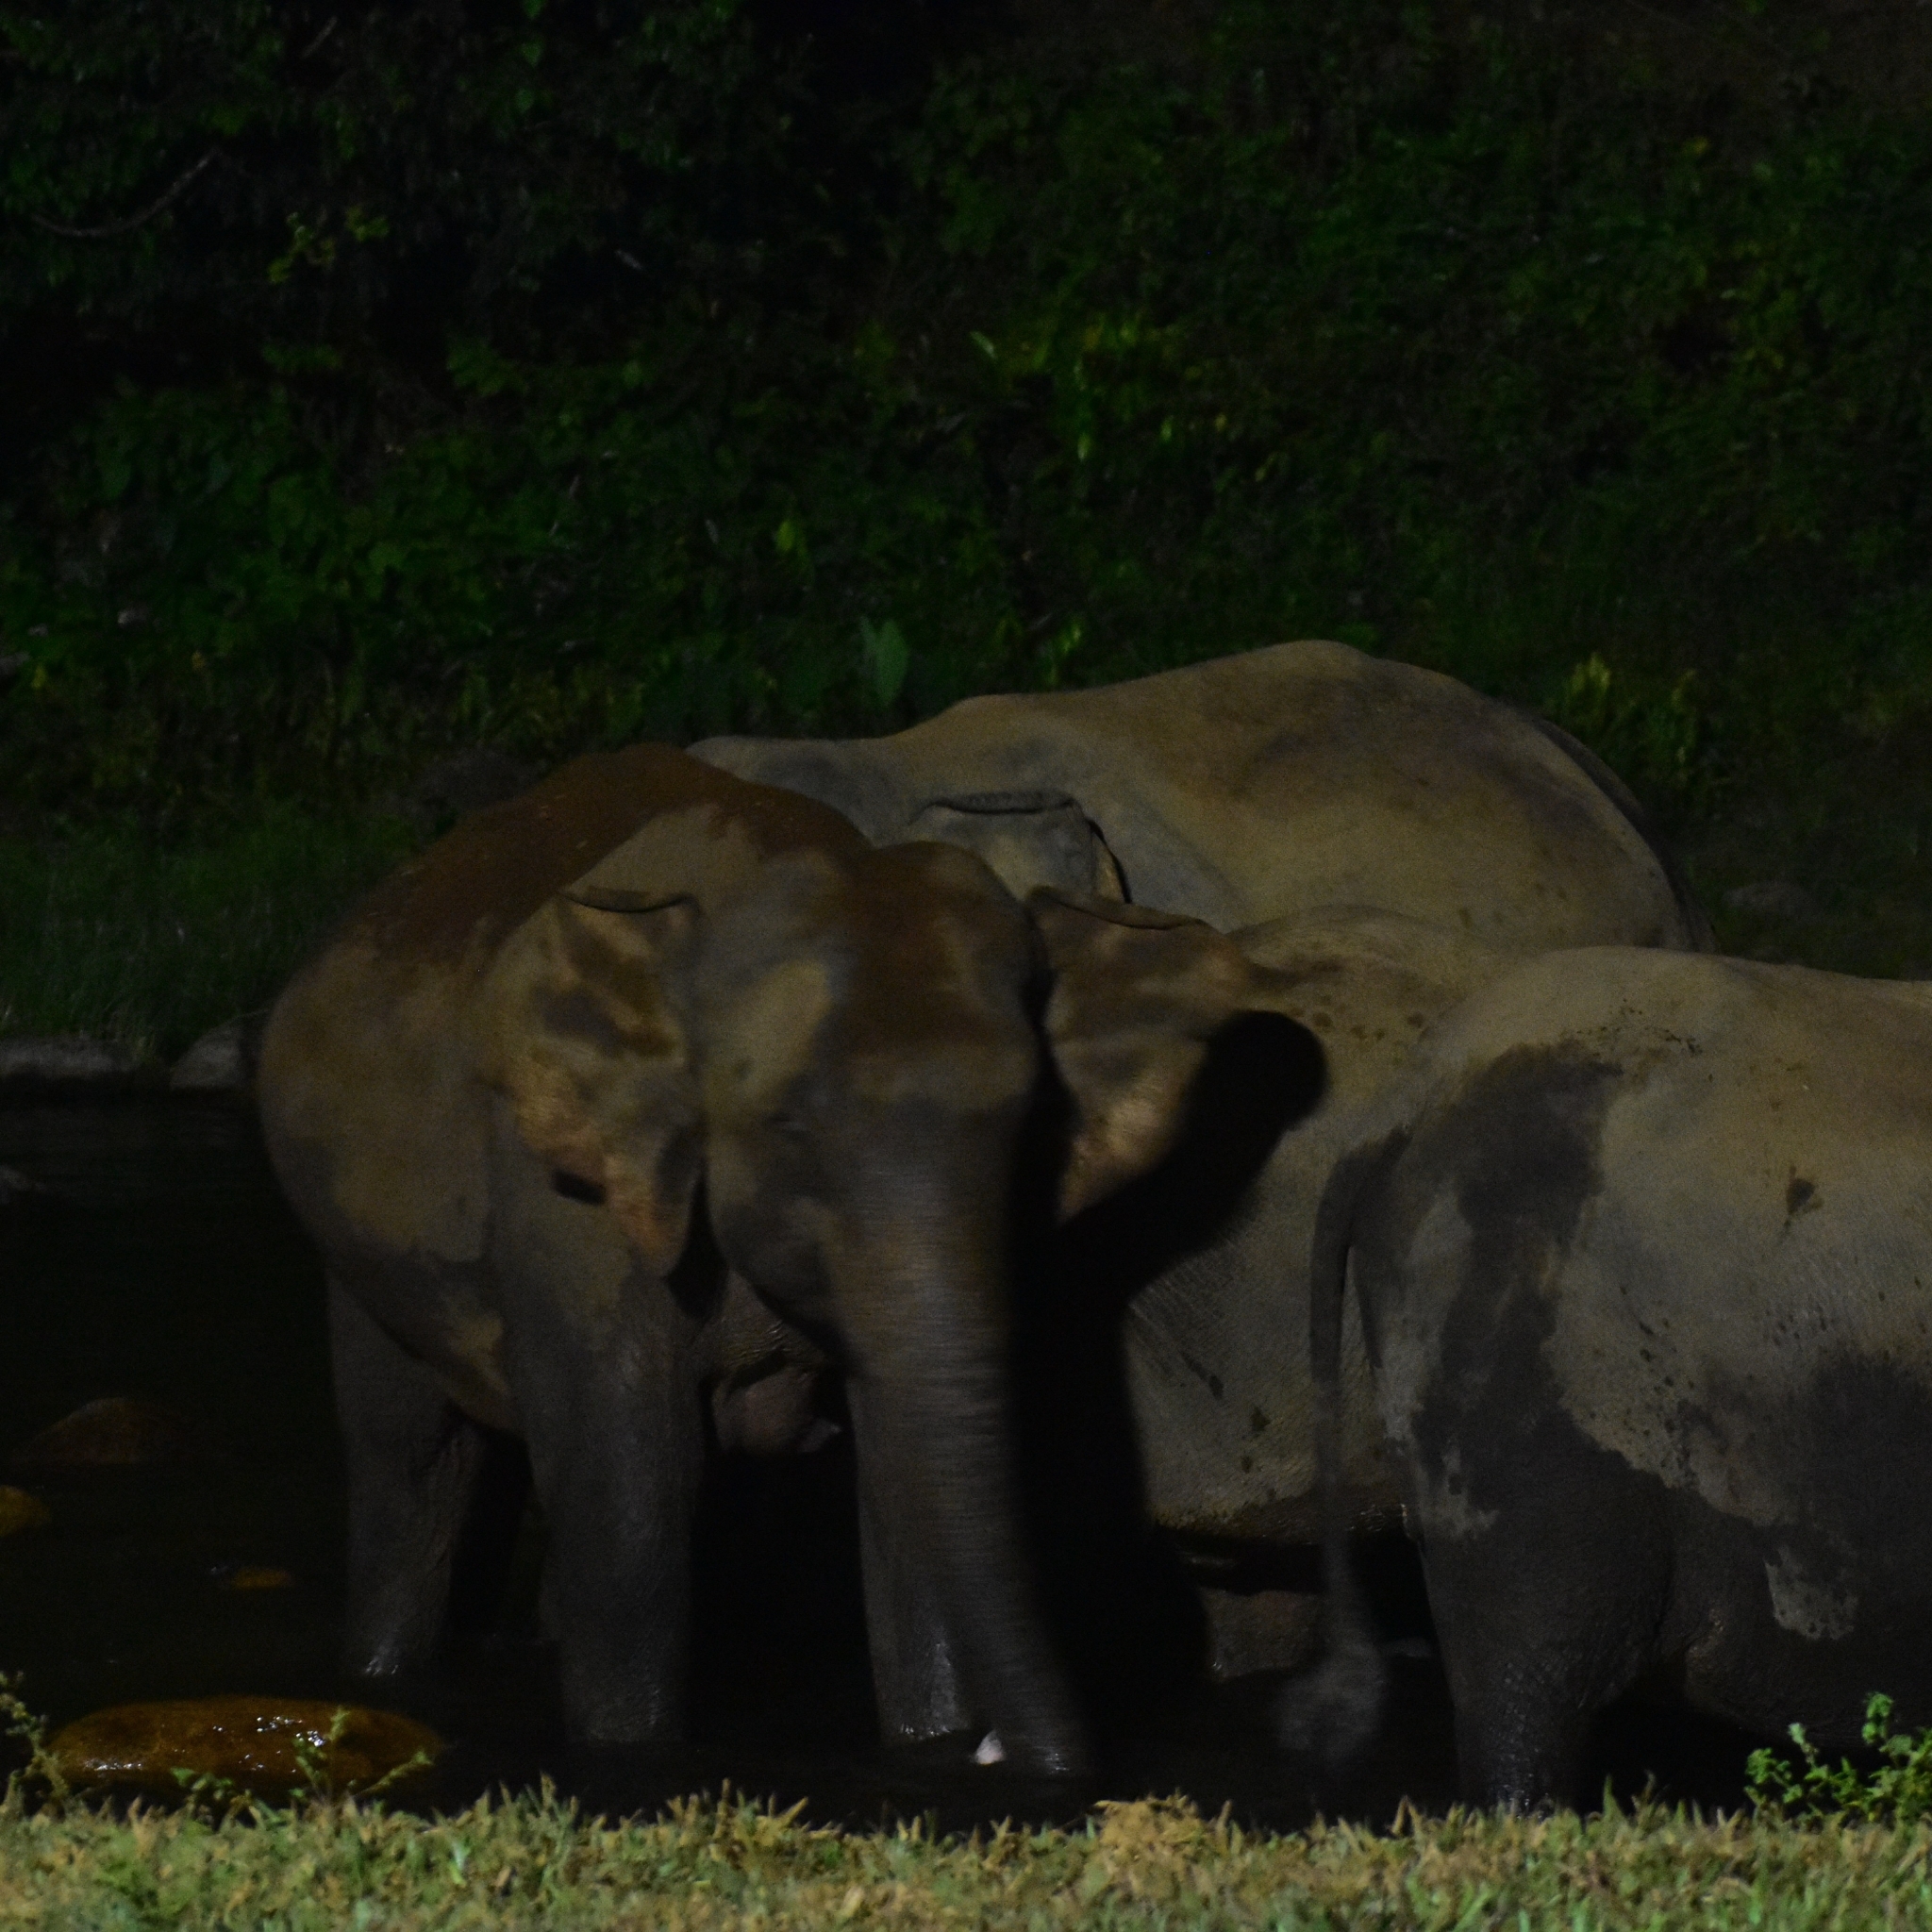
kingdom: Animalia
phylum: Chordata
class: Mammalia
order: Proboscidea
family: Elephantidae
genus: Elephas
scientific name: Elephas maximus
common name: Asian elephant
